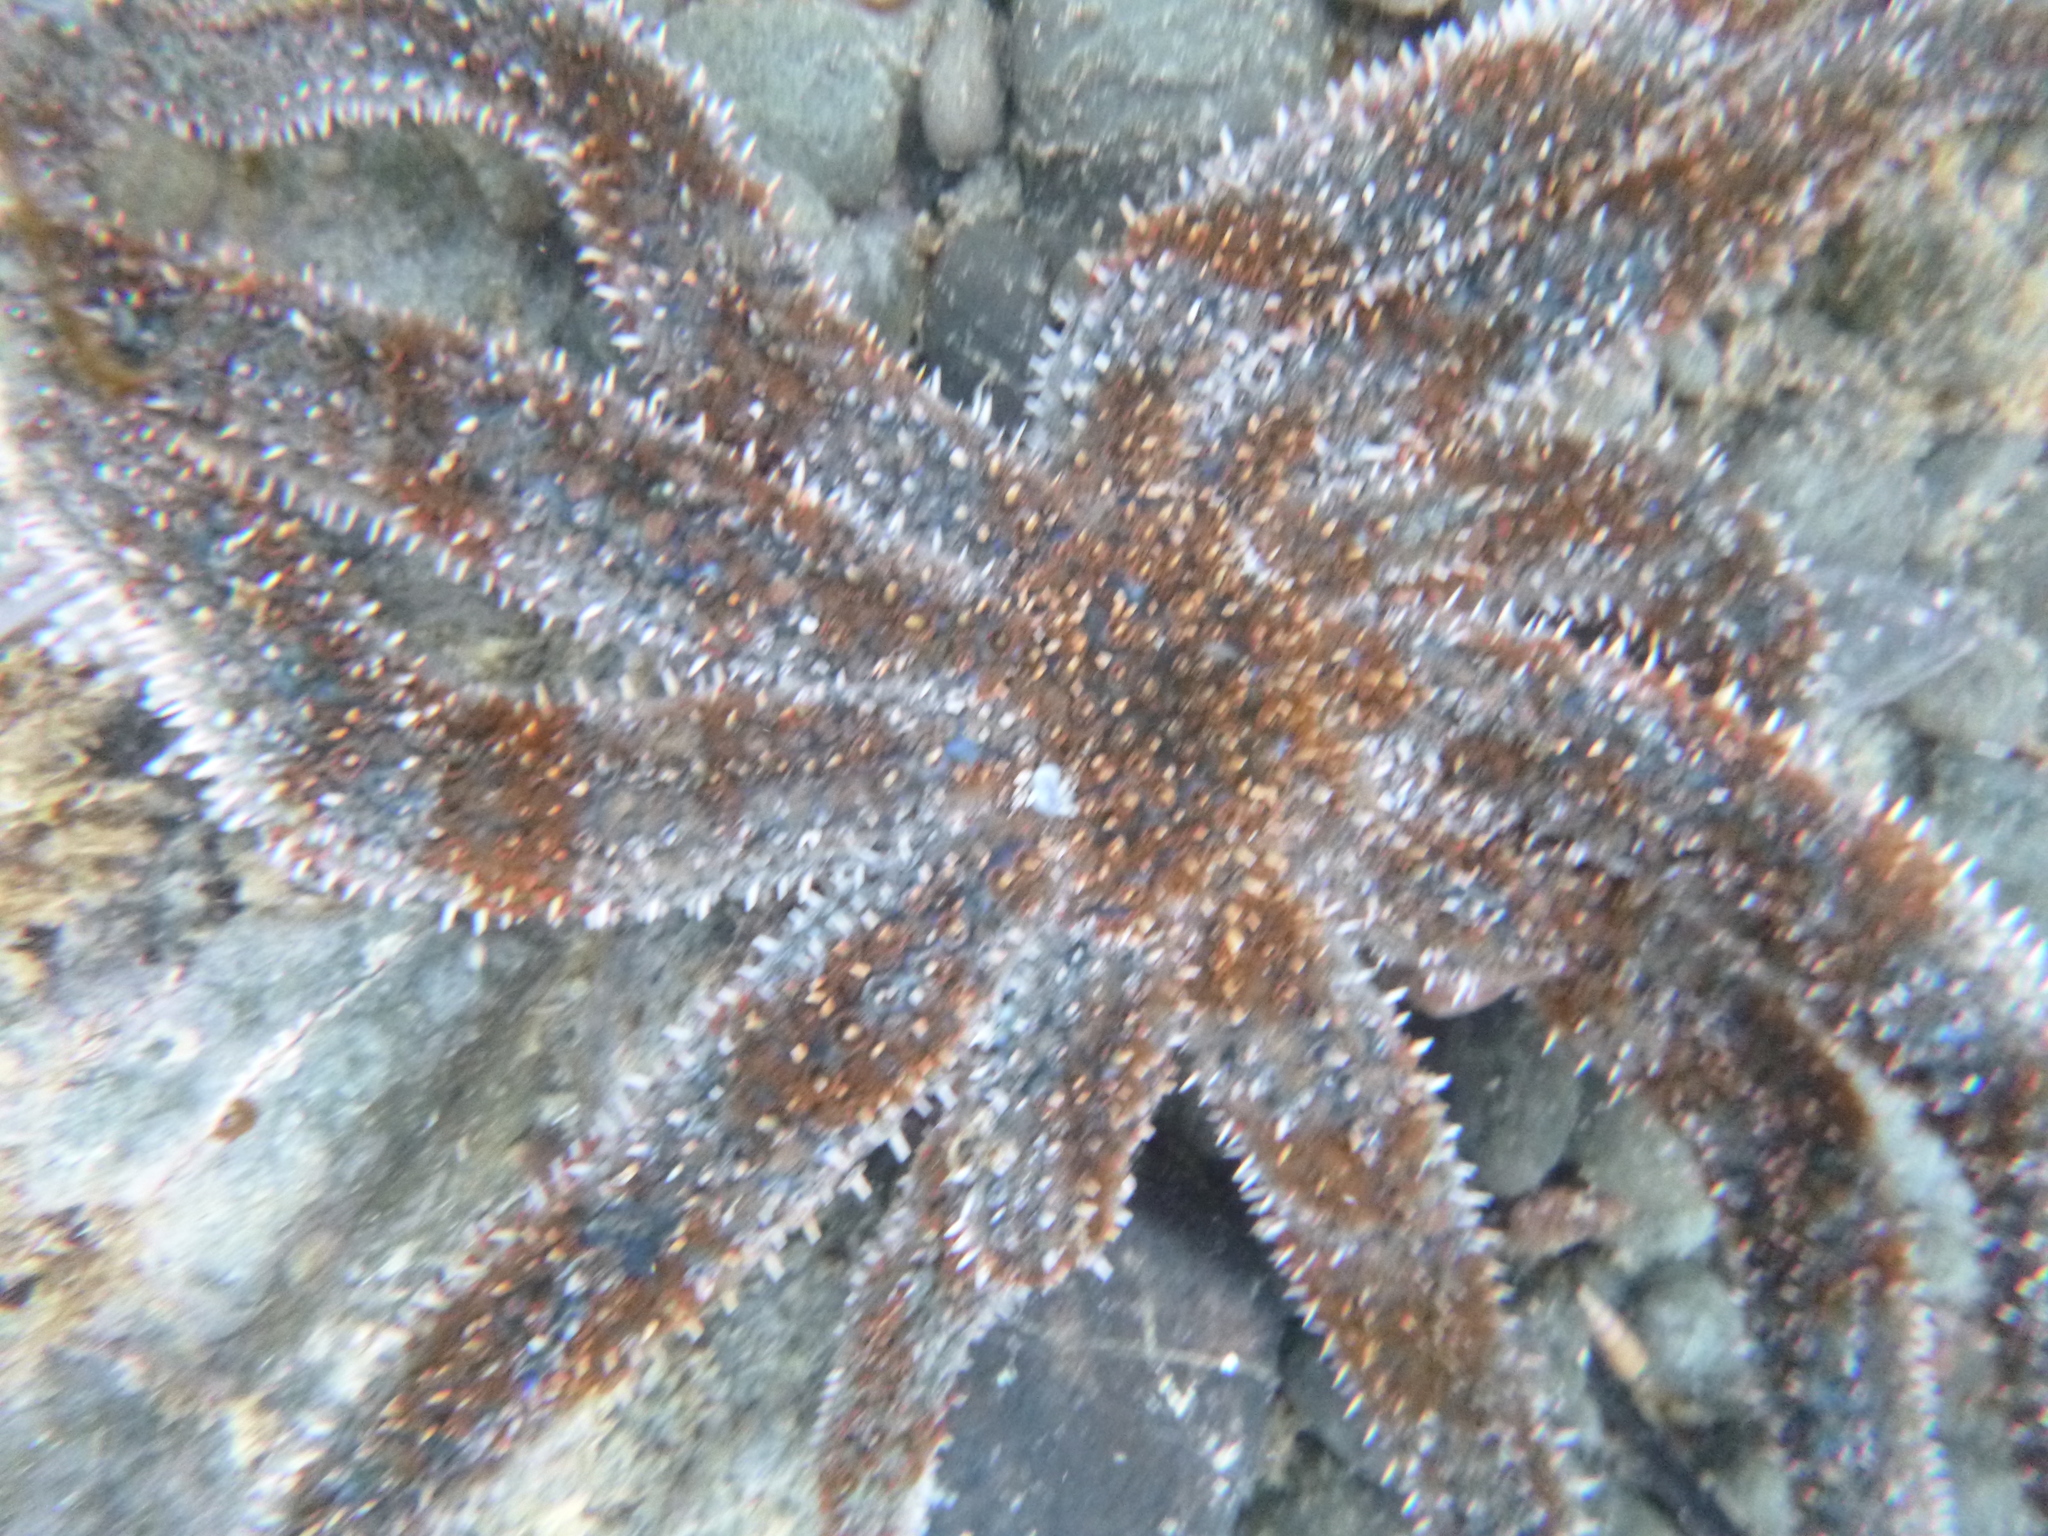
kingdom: Animalia
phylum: Echinodermata
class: Asteroidea
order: Forcipulatida
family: Asteriidae
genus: Coscinasterias
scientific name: Coscinasterias muricata
